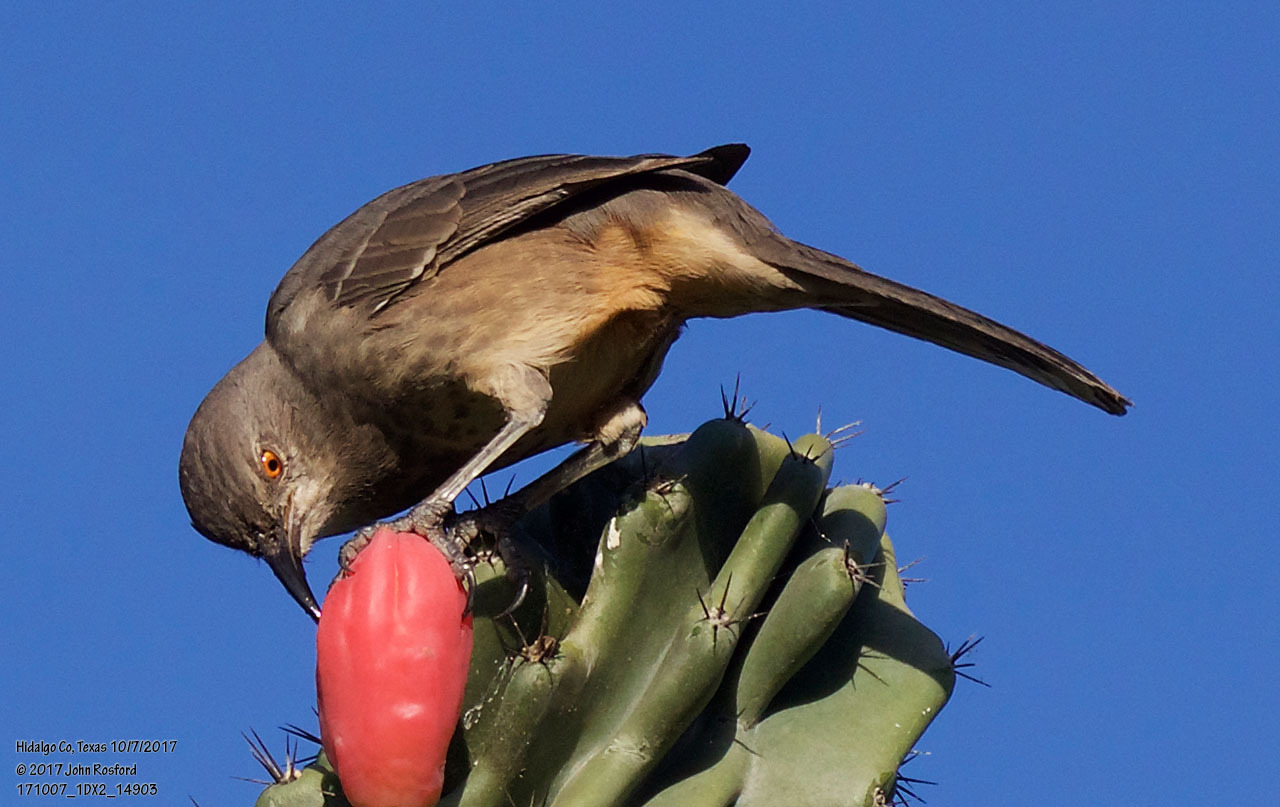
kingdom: Animalia
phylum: Chordata
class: Aves
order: Passeriformes
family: Mimidae
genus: Toxostoma
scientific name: Toxostoma curvirostre
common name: Curve-billed thrasher
